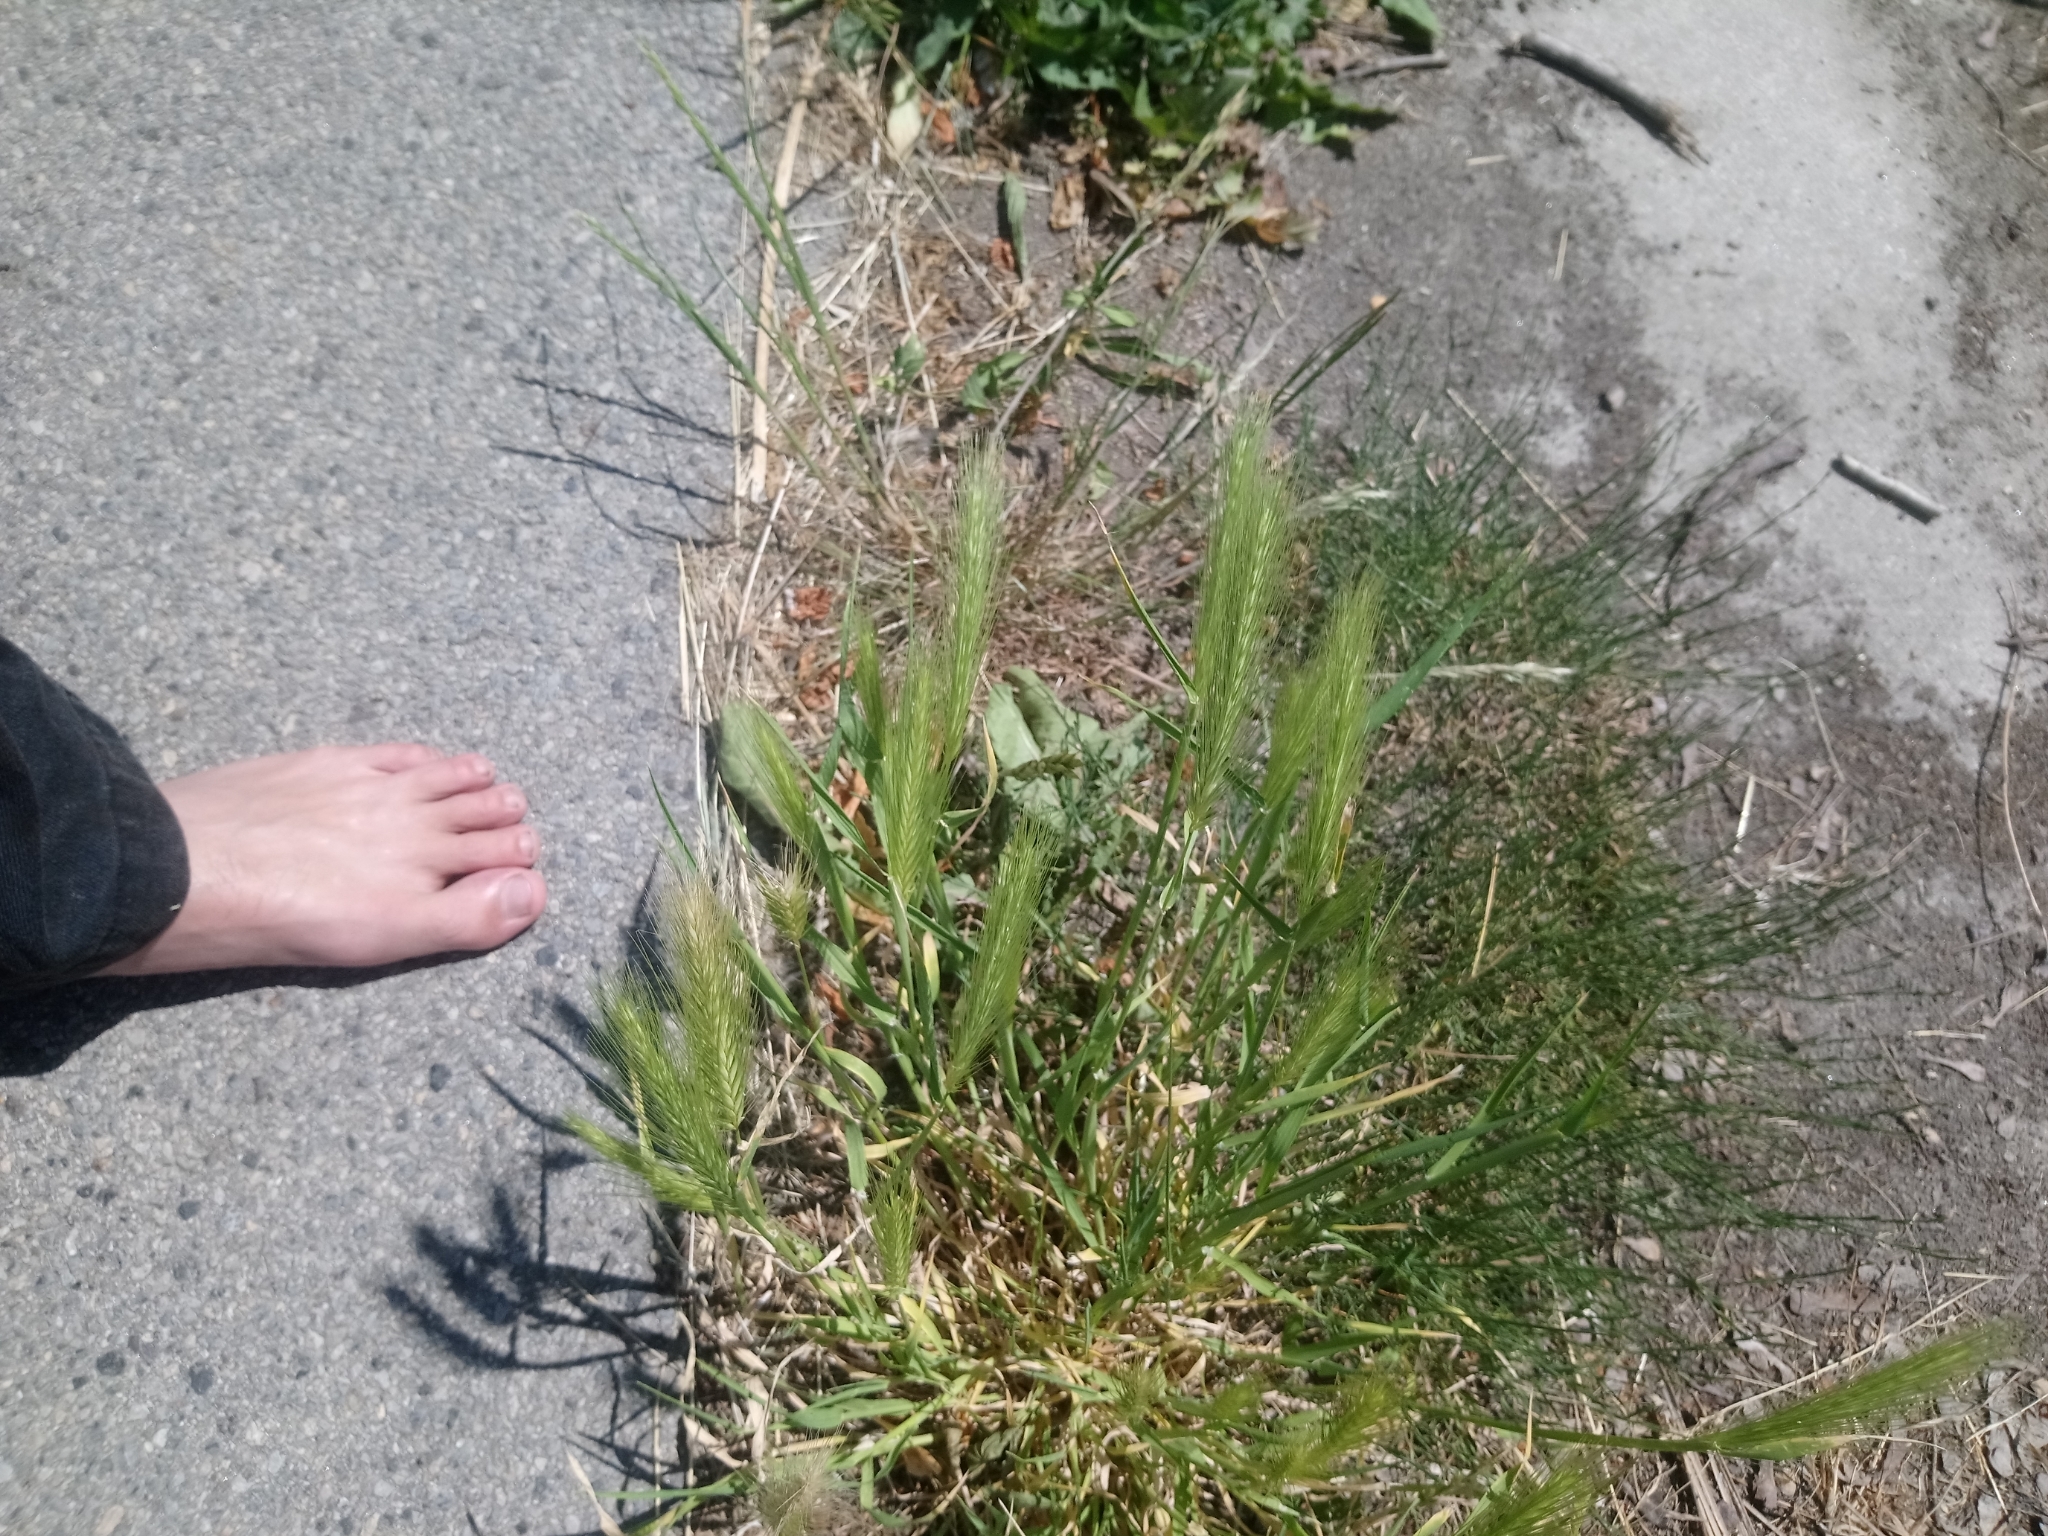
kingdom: Plantae
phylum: Tracheophyta
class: Liliopsida
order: Poales
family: Poaceae
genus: Hordeum
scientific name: Hordeum murinum
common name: Wall barley
